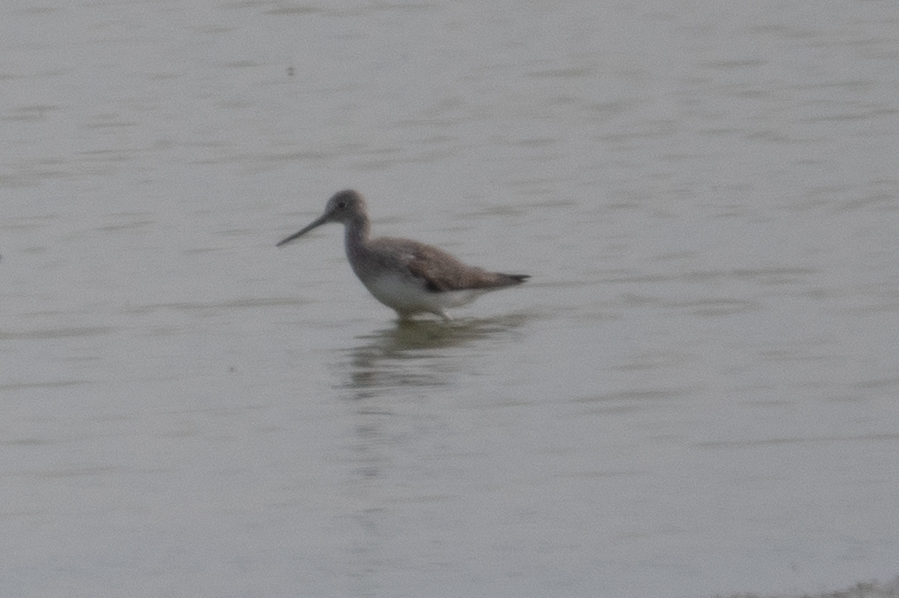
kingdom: Animalia
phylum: Chordata
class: Aves
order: Charadriiformes
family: Scolopacidae
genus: Tringa
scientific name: Tringa melanoleuca
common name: Greater yellowlegs
